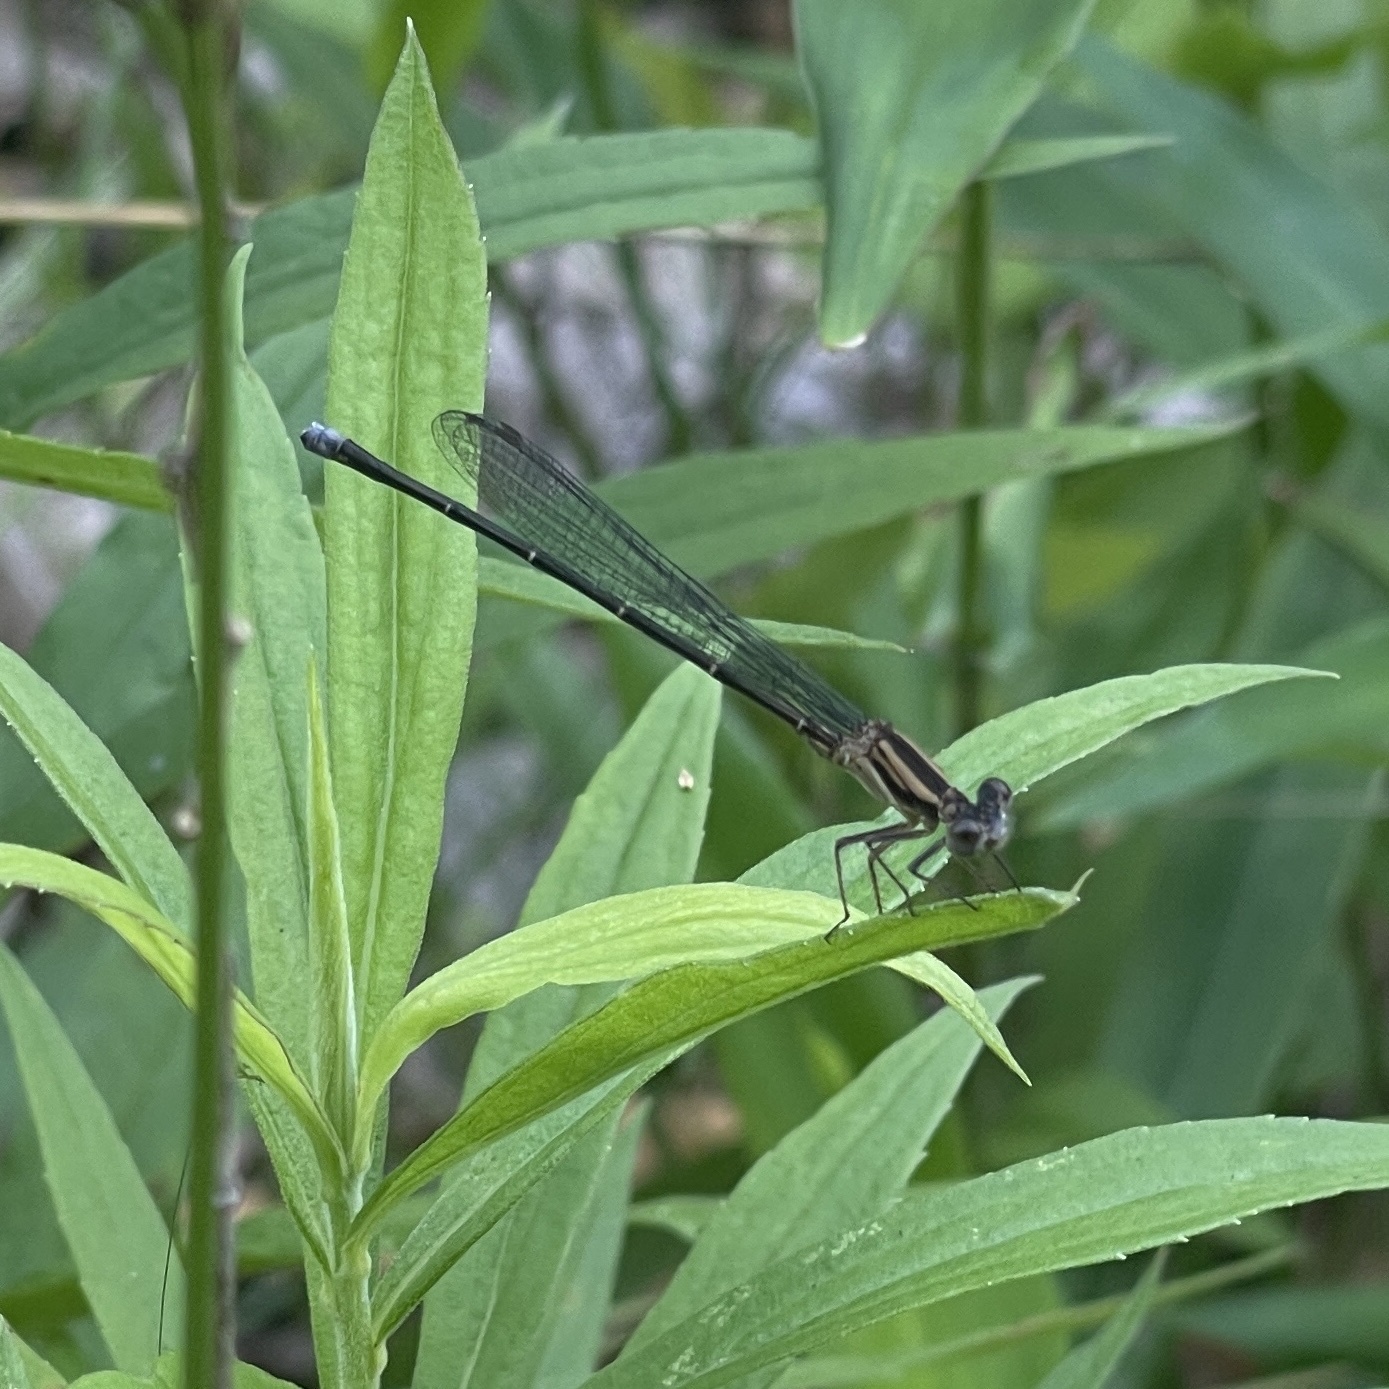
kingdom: Animalia
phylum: Arthropoda
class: Insecta
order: Odonata
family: Coenagrionidae
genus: Argia
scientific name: Argia moesta
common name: Powdered dancer
